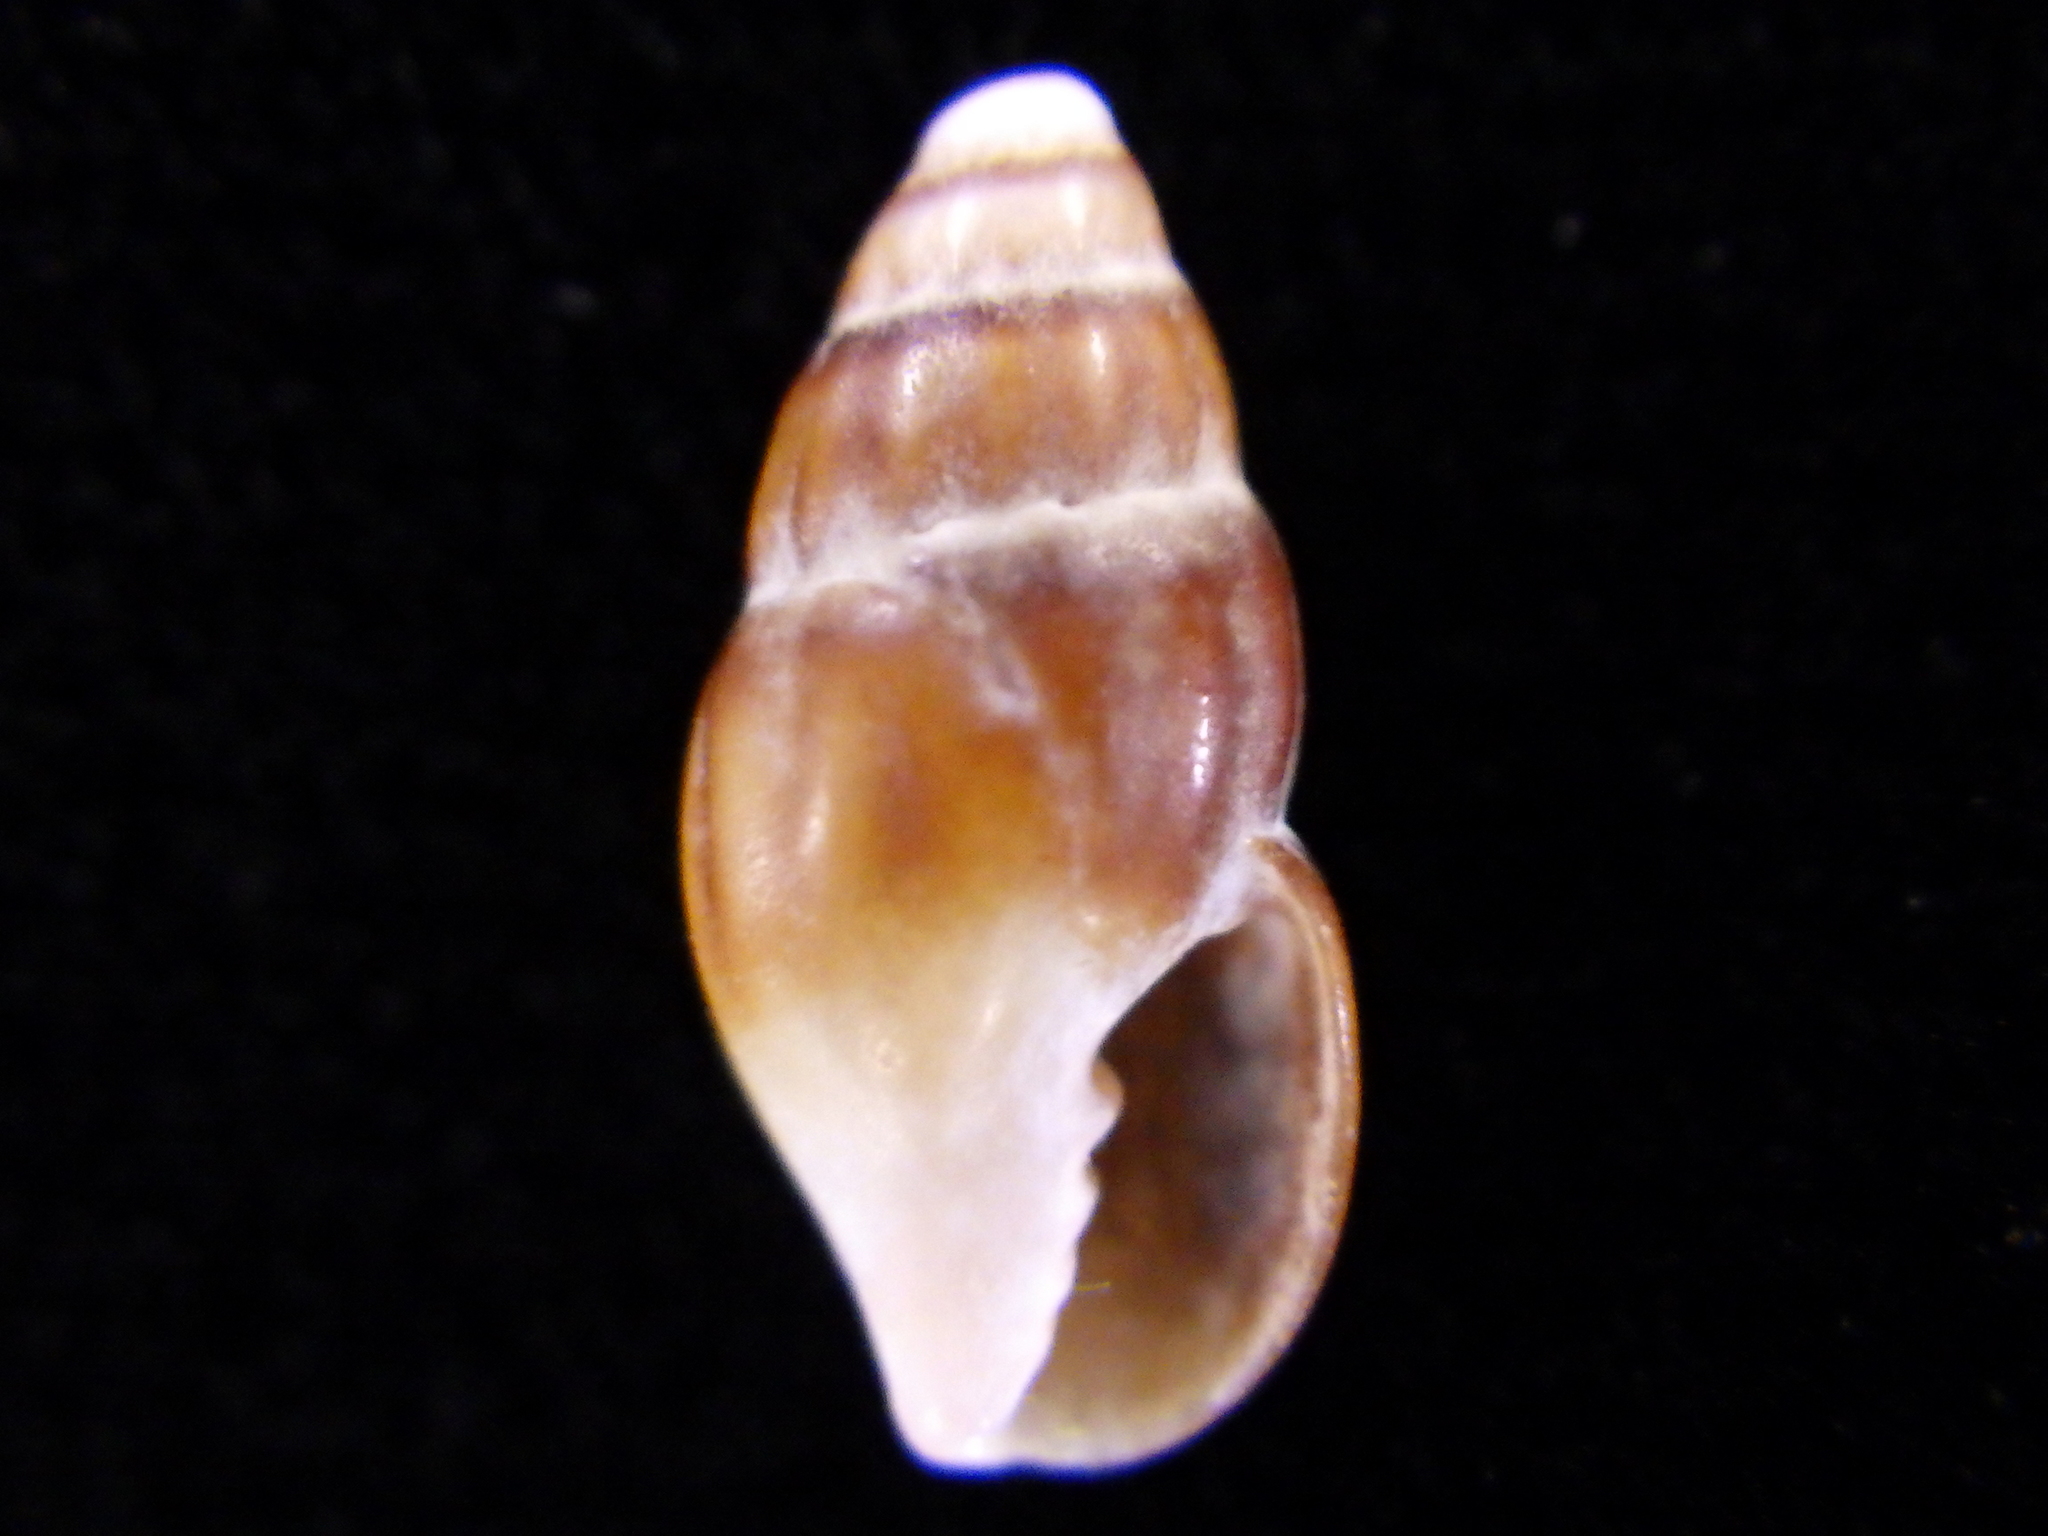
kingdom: Animalia
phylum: Mollusca
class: Gastropoda
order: Neogastropoda
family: Costellariidae
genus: Austromitra
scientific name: Austromitra rubiginosa
